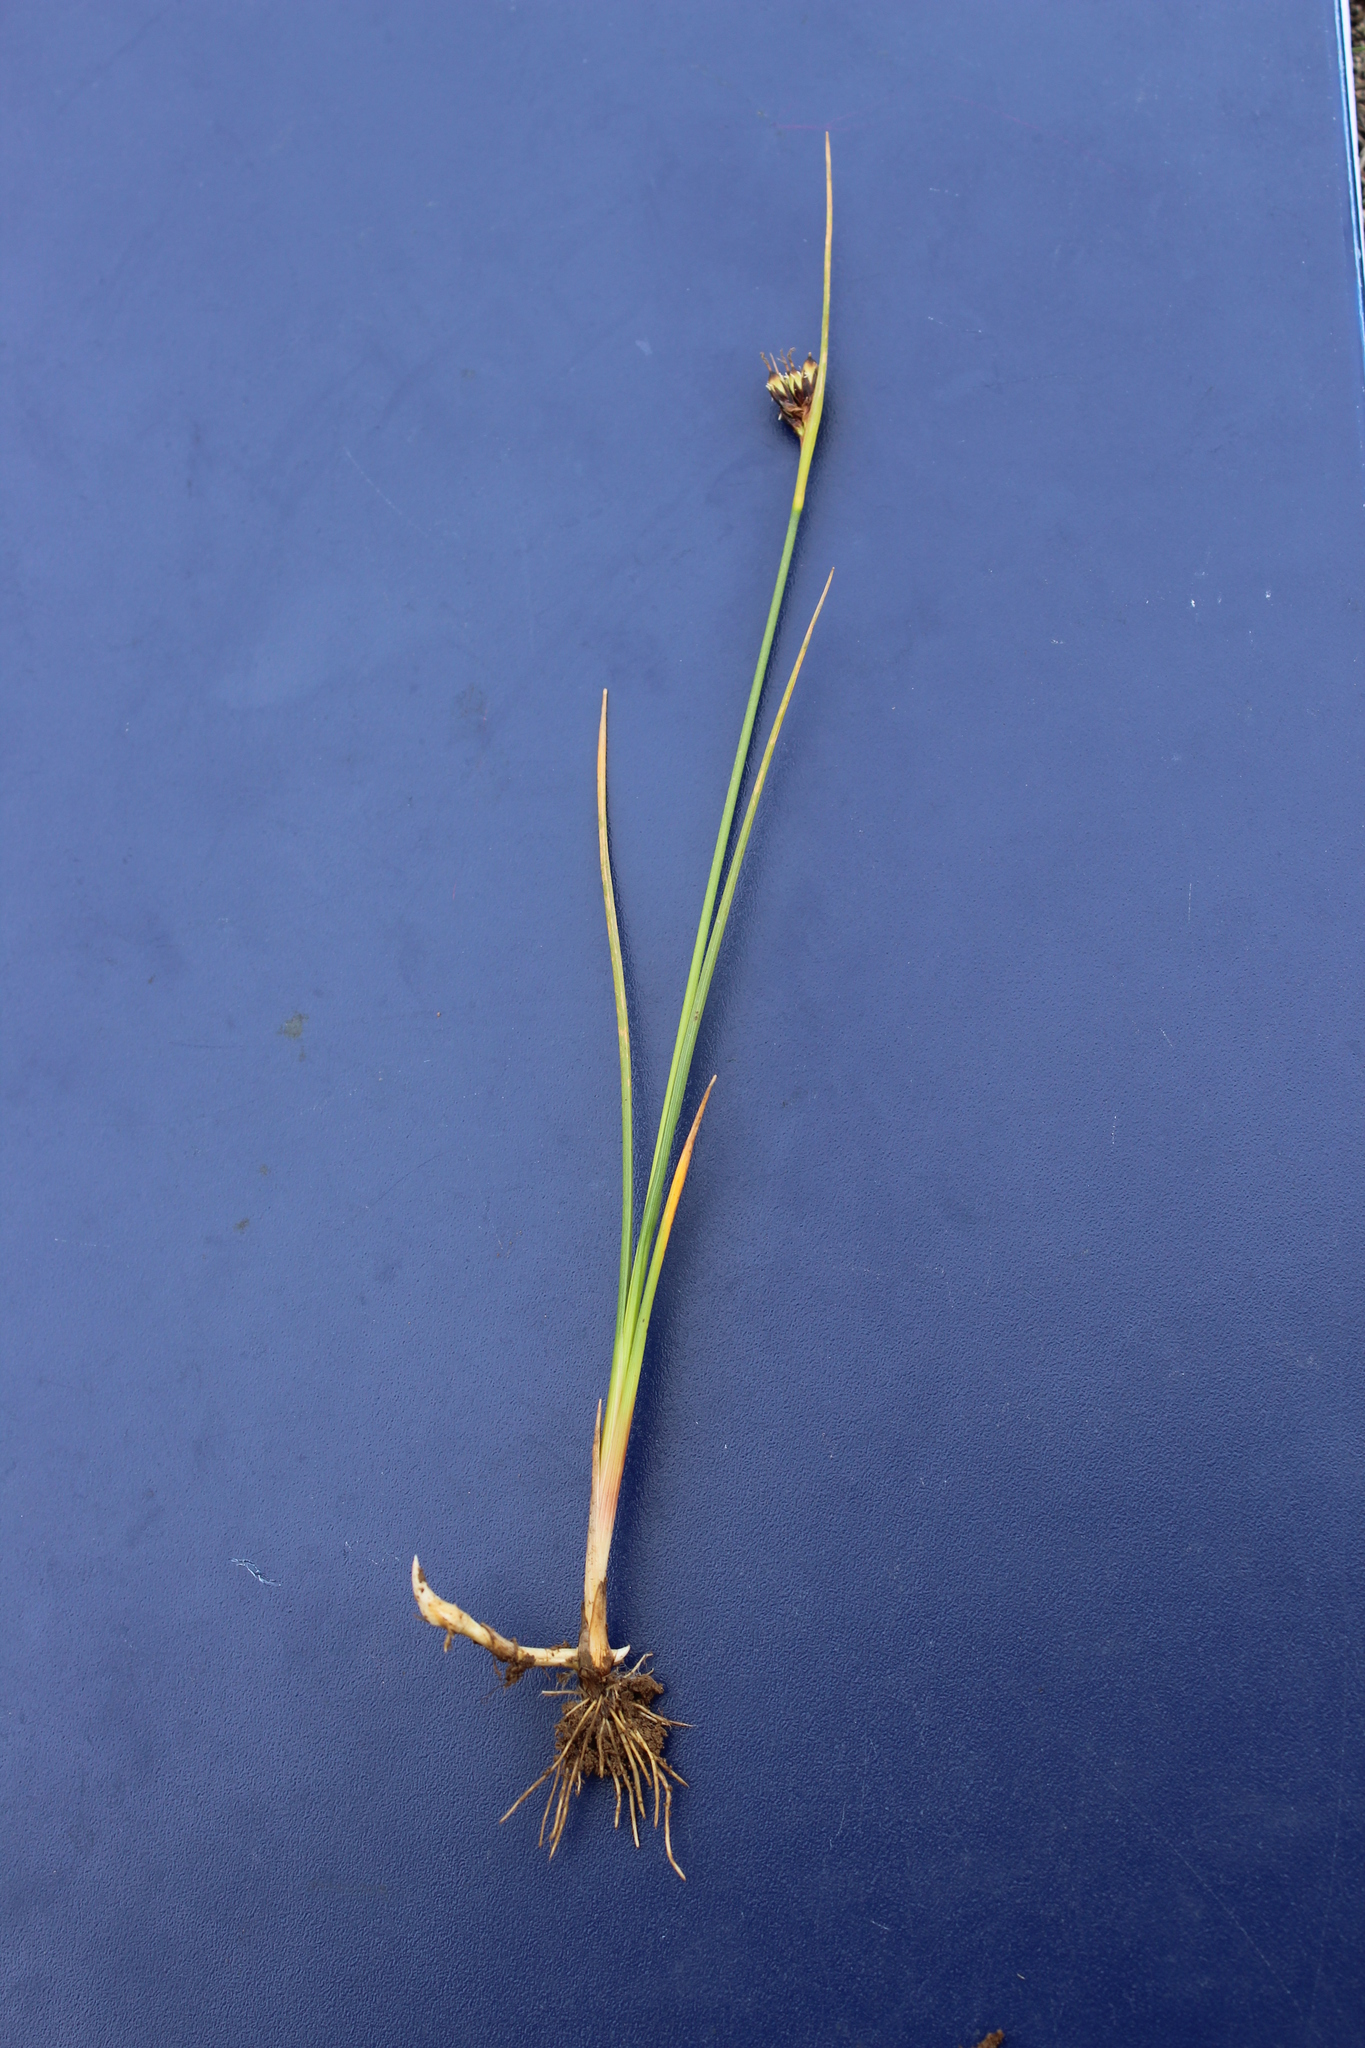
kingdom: Plantae
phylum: Tracheophyta
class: Liliopsida
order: Poales
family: Juncaceae
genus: Juncus
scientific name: Juncus castaneus
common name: Chestnut rush
